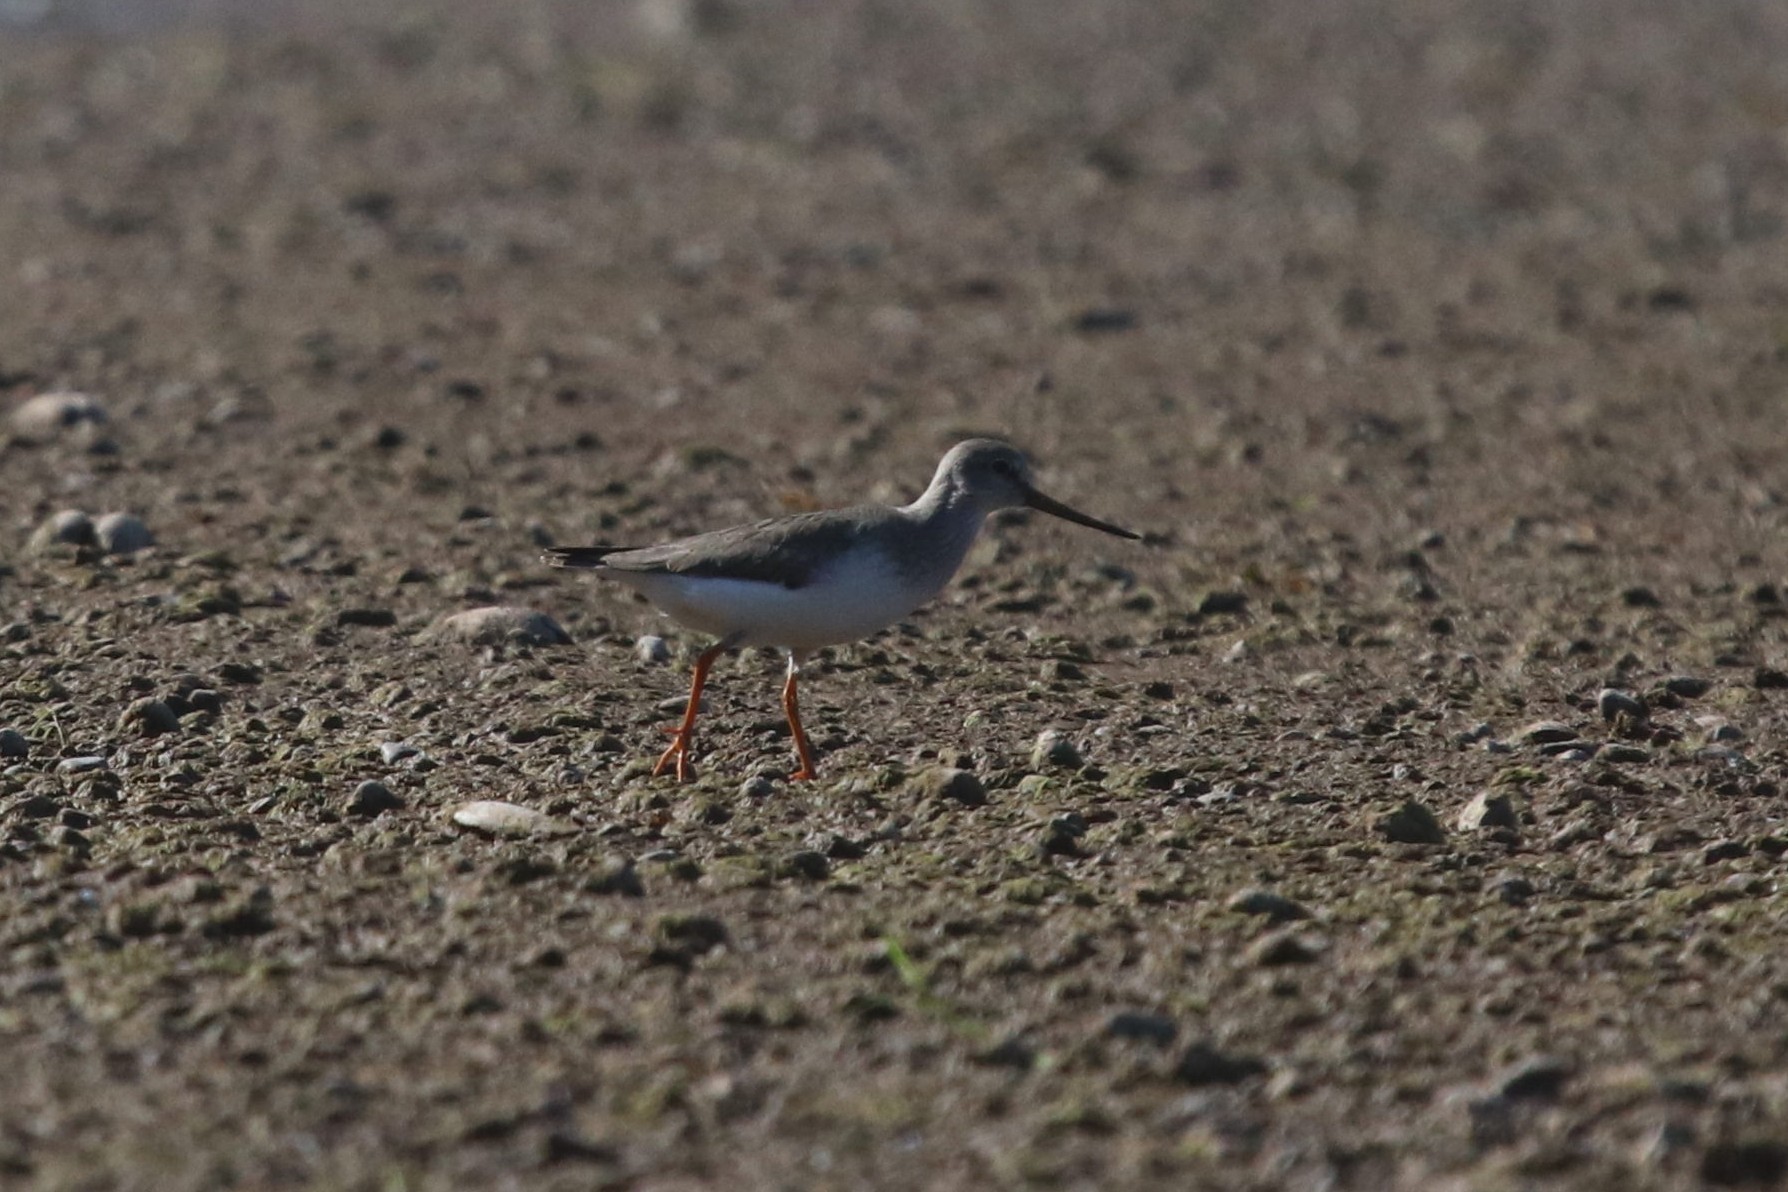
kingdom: Animalia
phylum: Chordata
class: Aves
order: Charadriiformes
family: Scolopacidae
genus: Xenus
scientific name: Xenus cinereus
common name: Terek sandpiper
